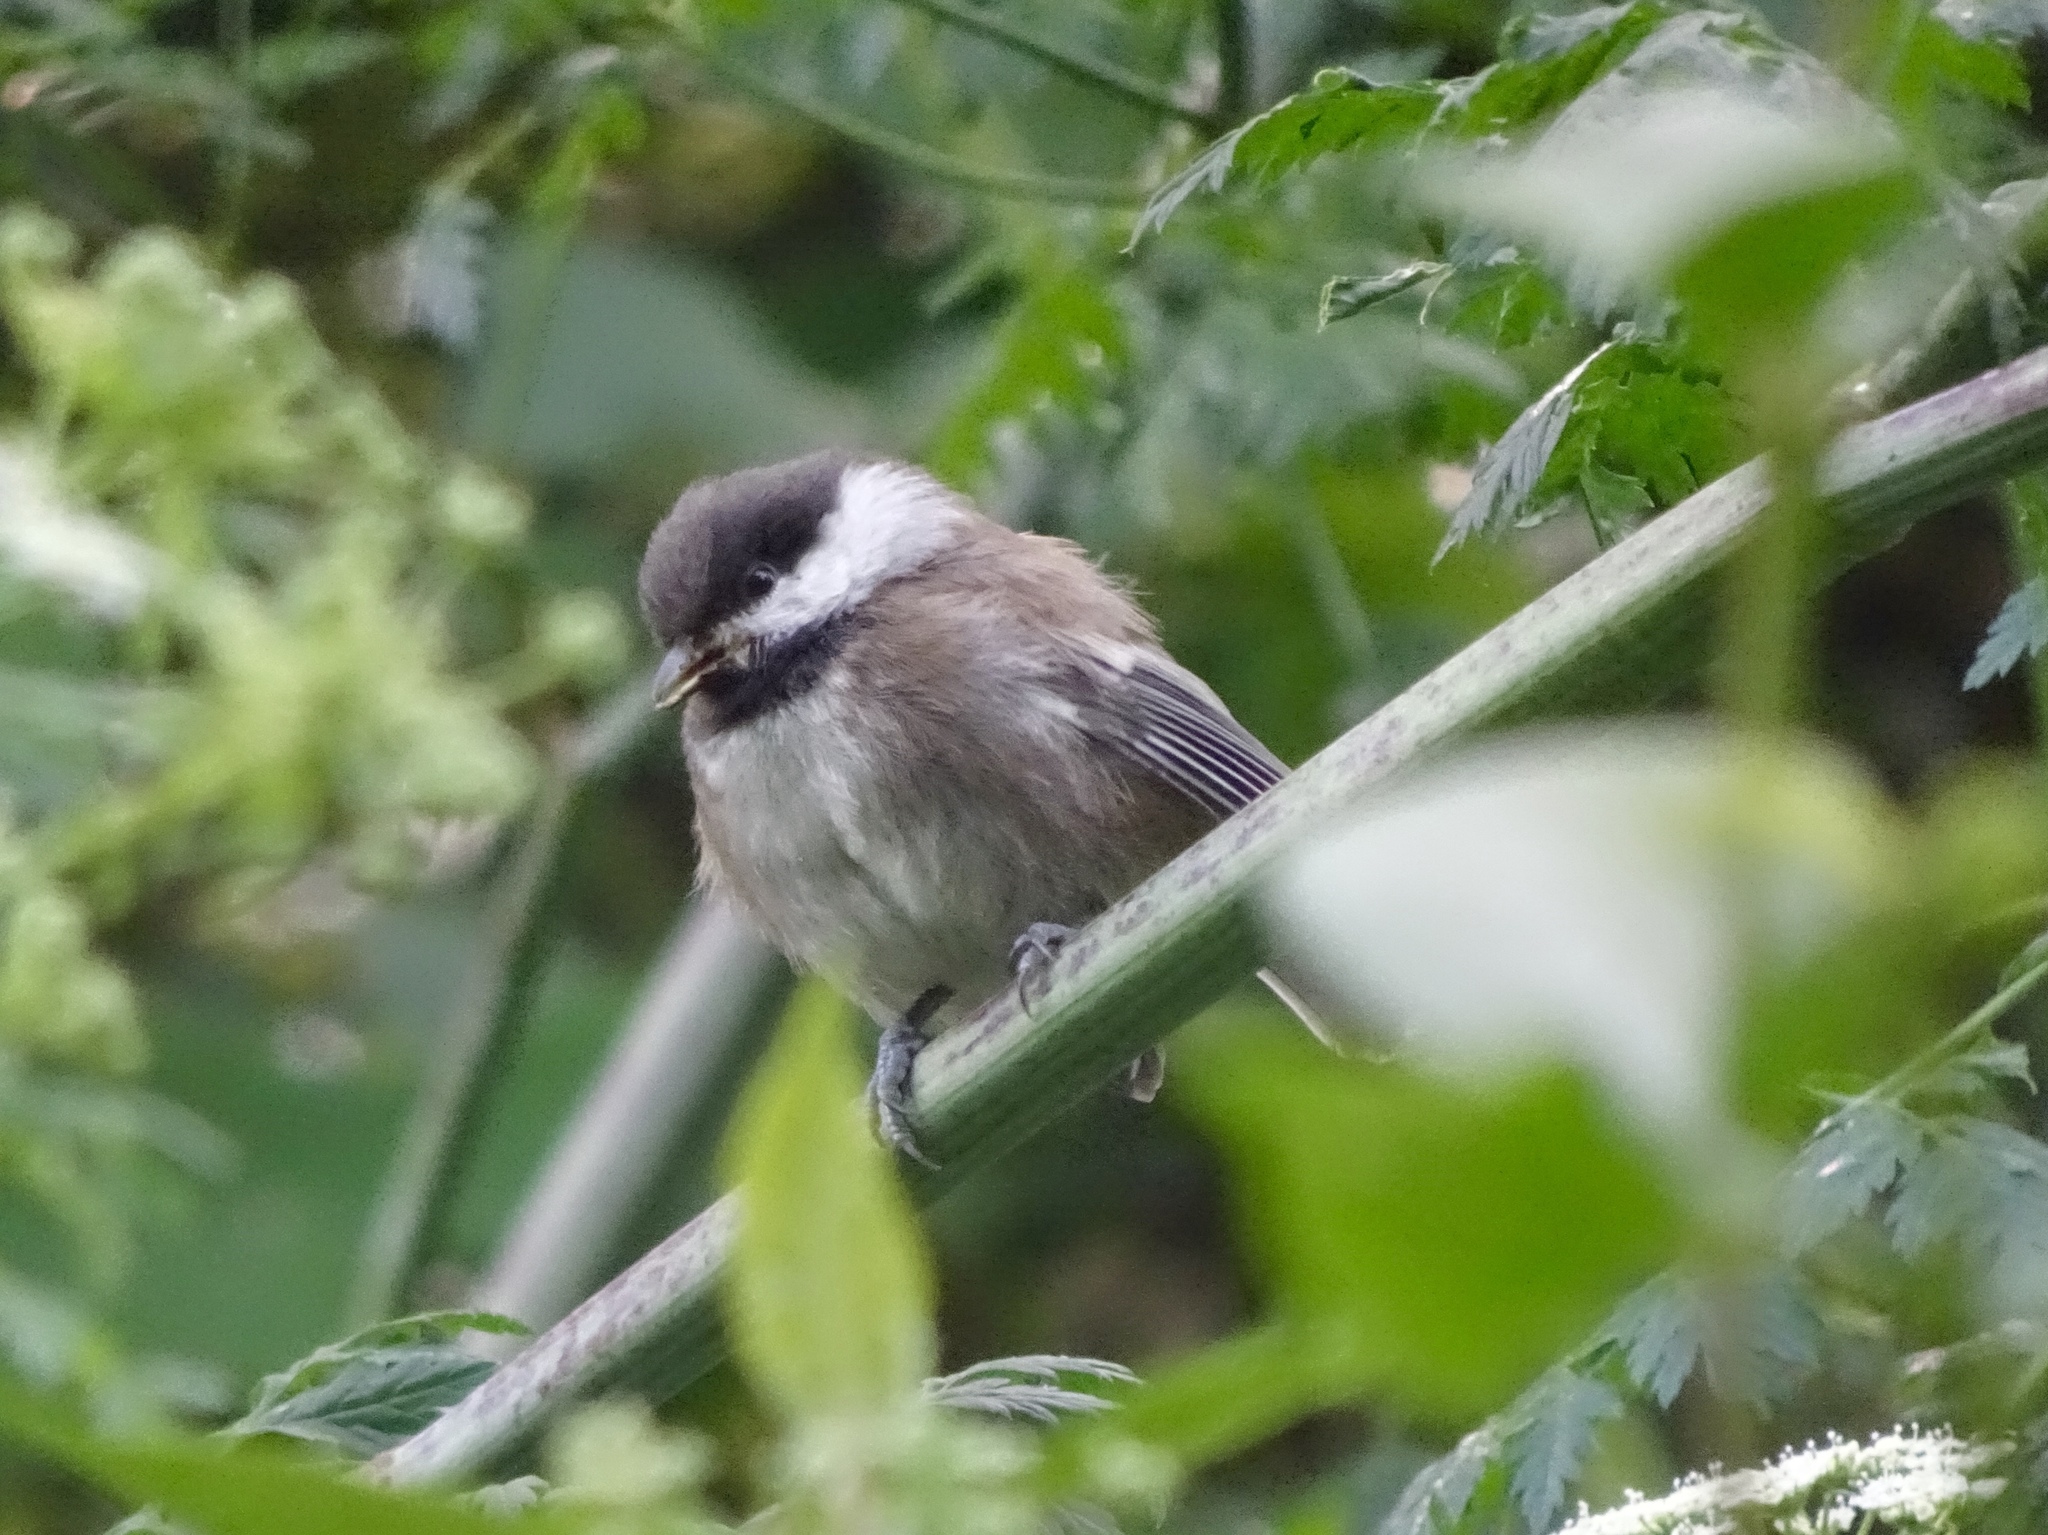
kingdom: Animalia
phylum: Chordata
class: Aves
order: Passeriformes
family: Paridae
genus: Poecile
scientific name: Poecile rufescens
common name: Chestnut-backed chickadee
